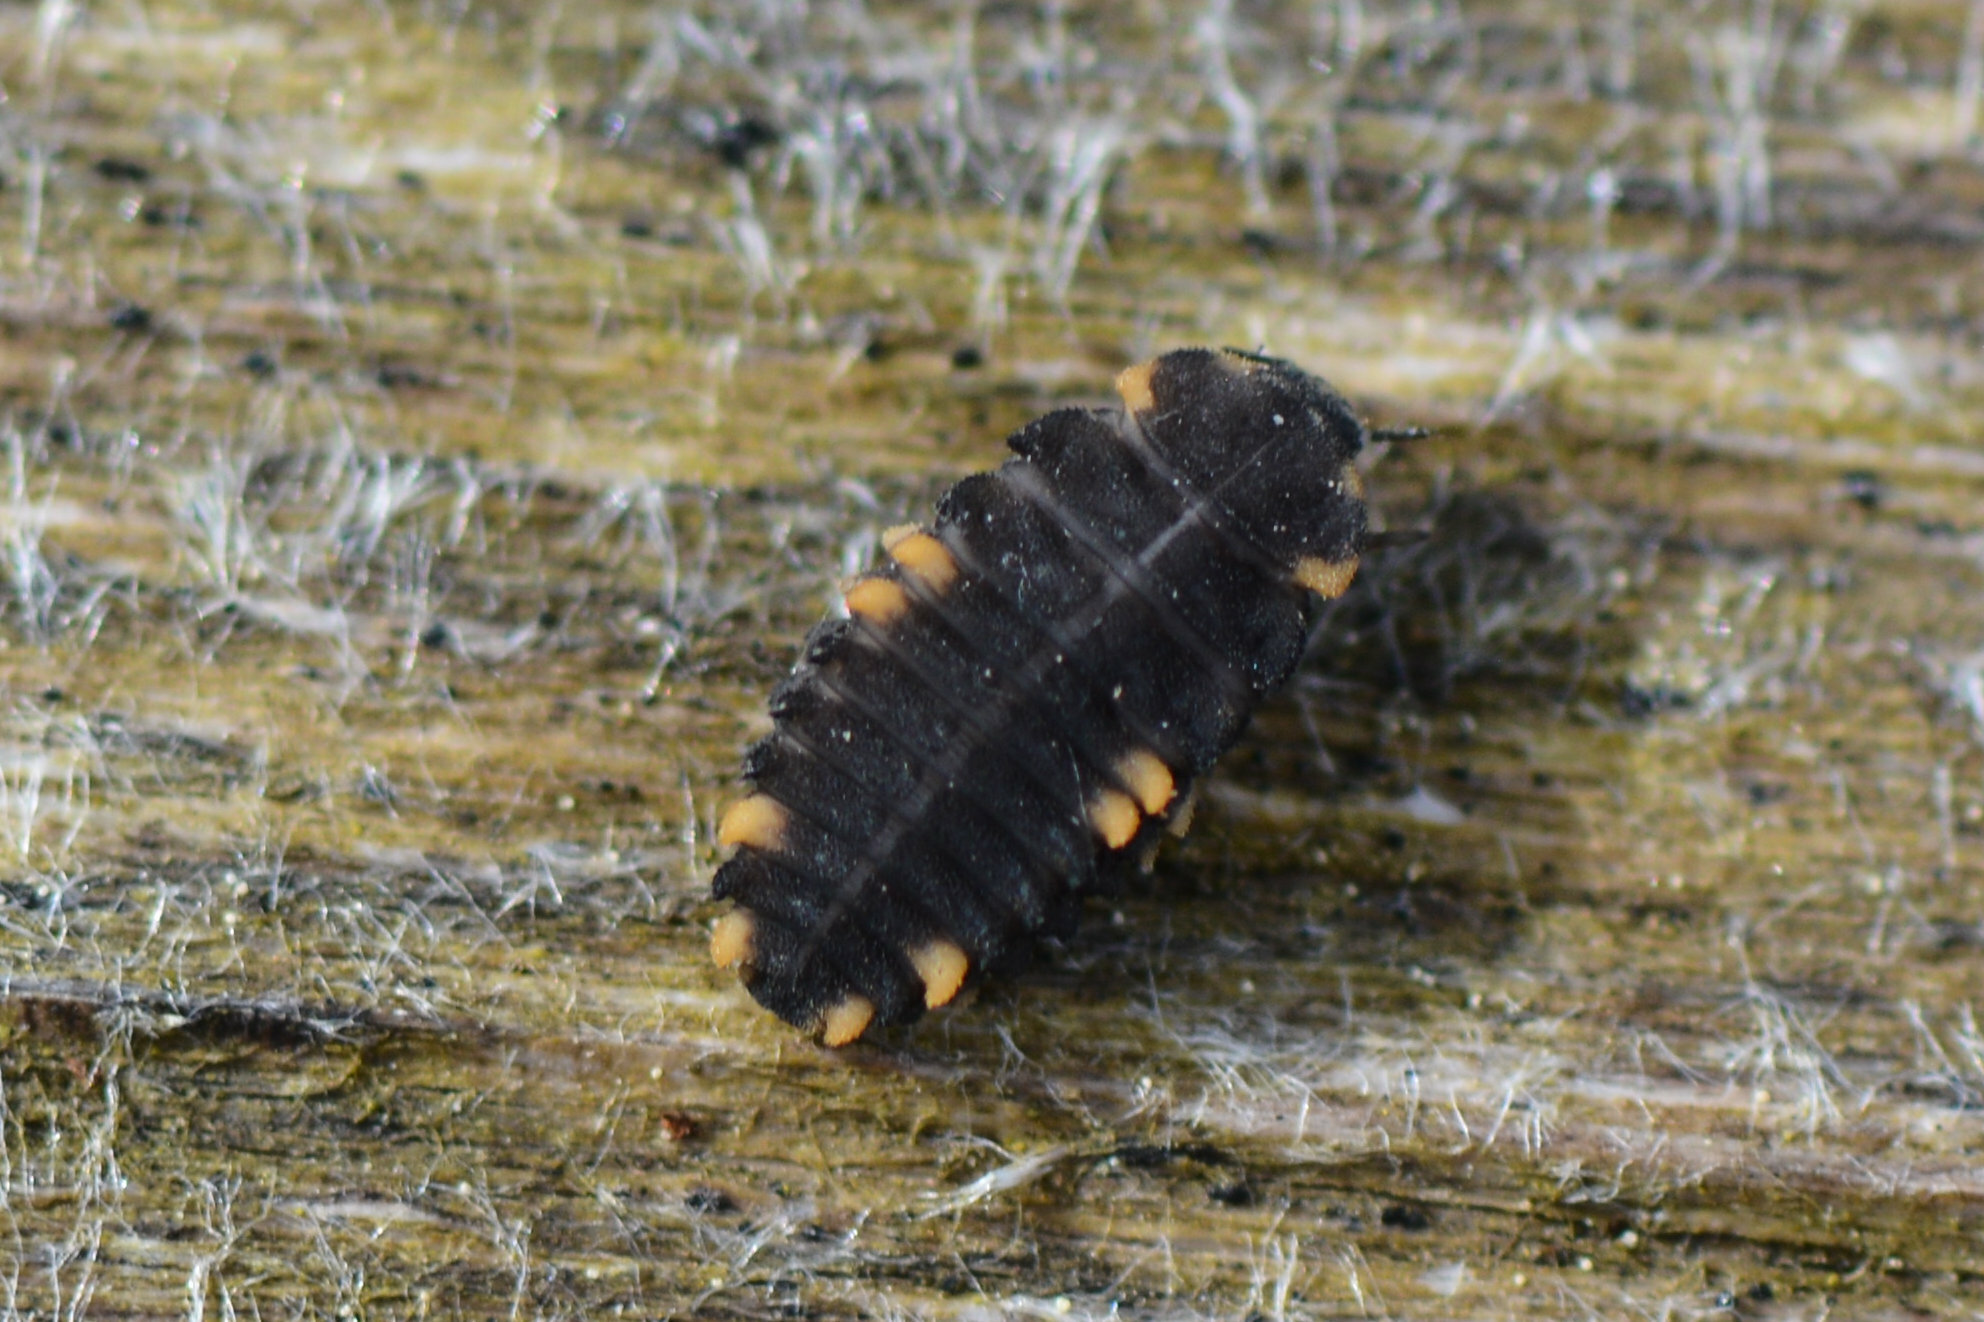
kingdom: Animalia
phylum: Arthropoda
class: Insecta
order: Coleoptera
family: Endomychidae
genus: Endomychus
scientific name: Endomychus coccineus
